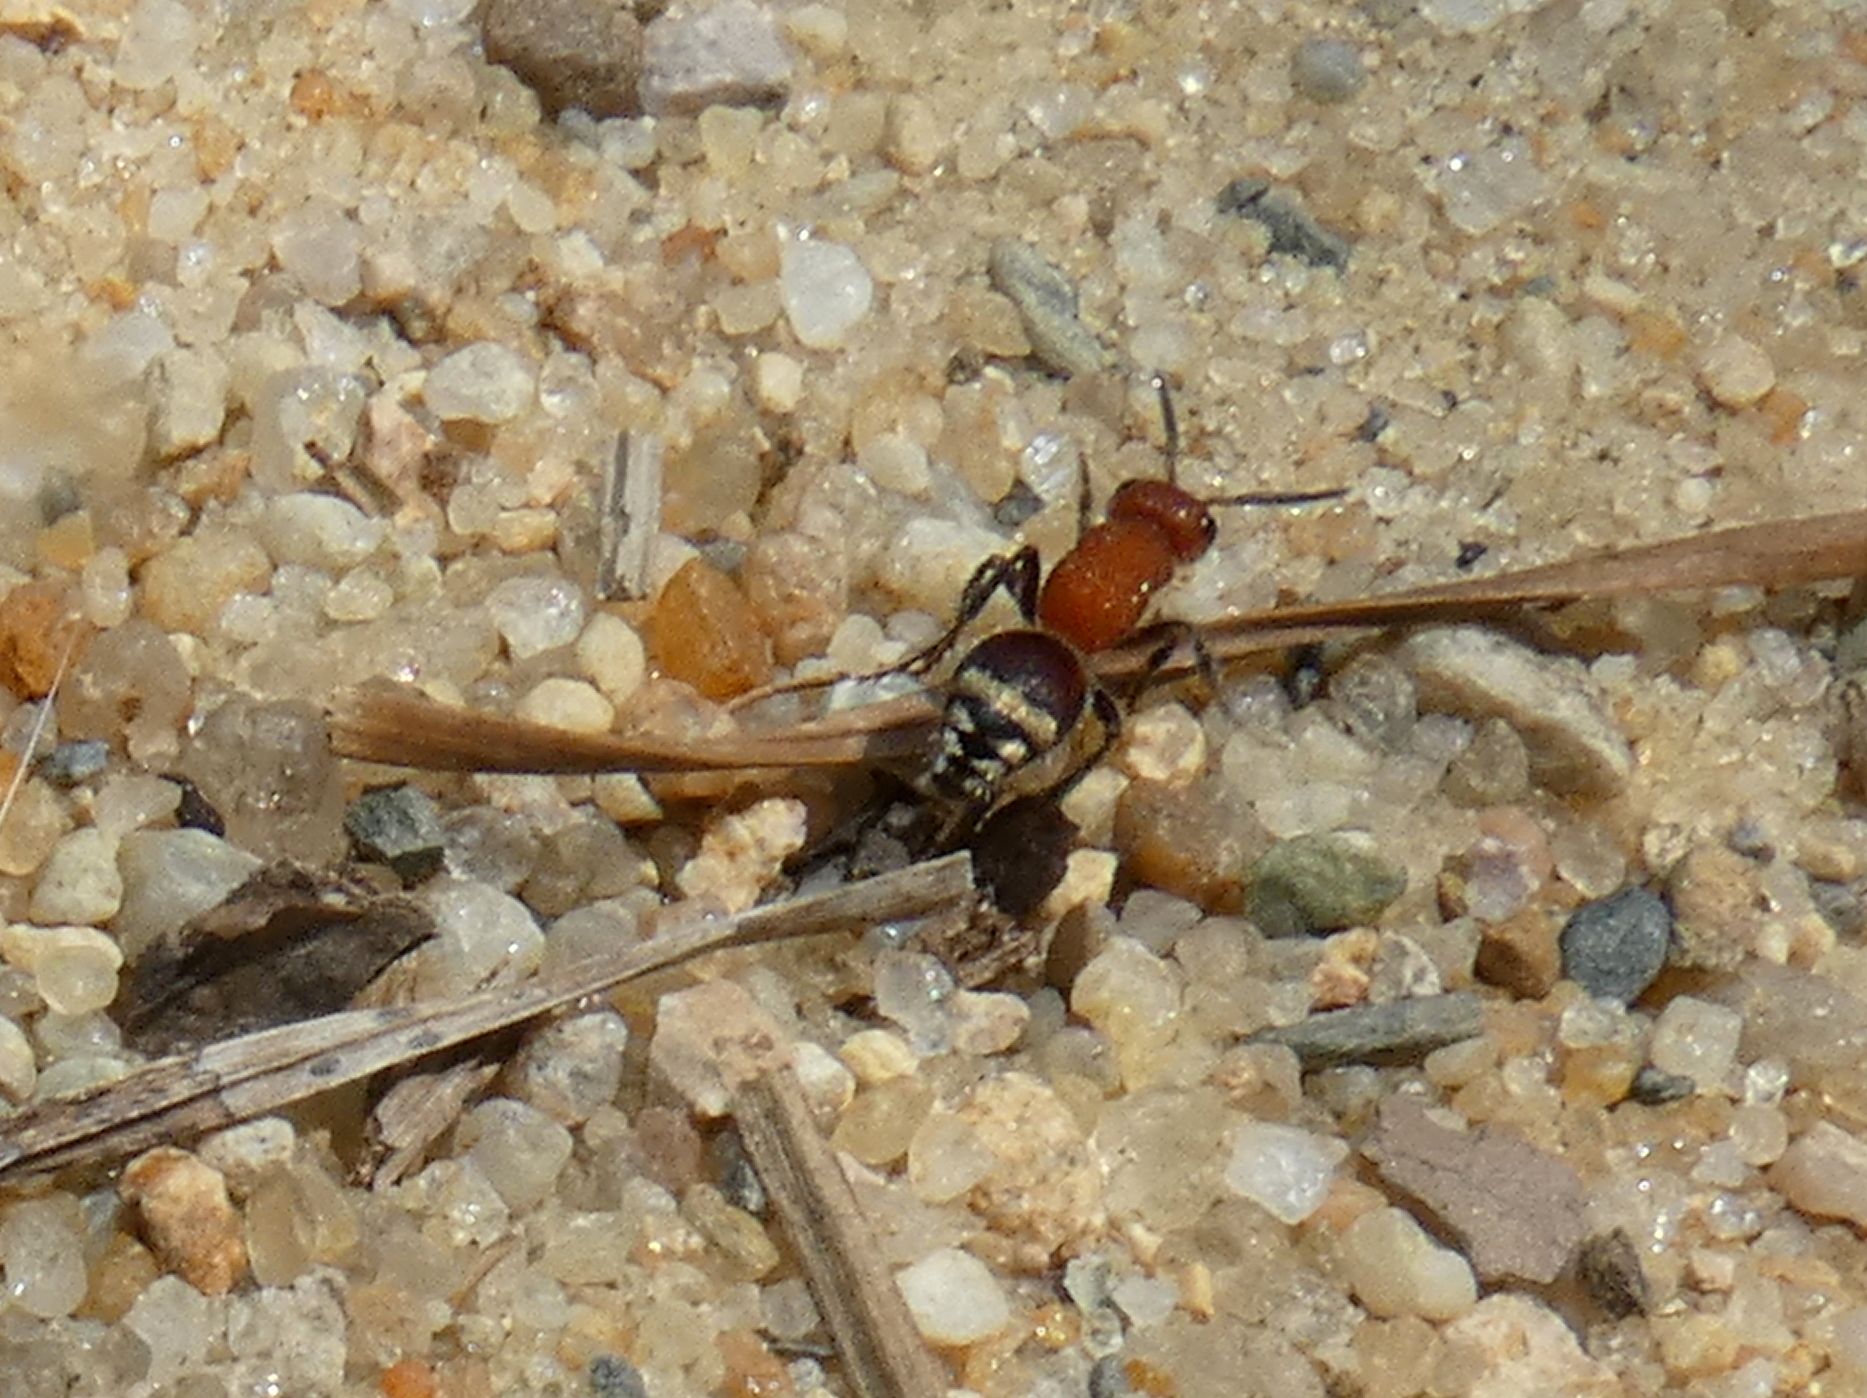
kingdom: Animalia
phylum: Arthropoda
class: Insecta
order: Hymenoptera
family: Mutillidae
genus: Timulla
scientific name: Timulla
